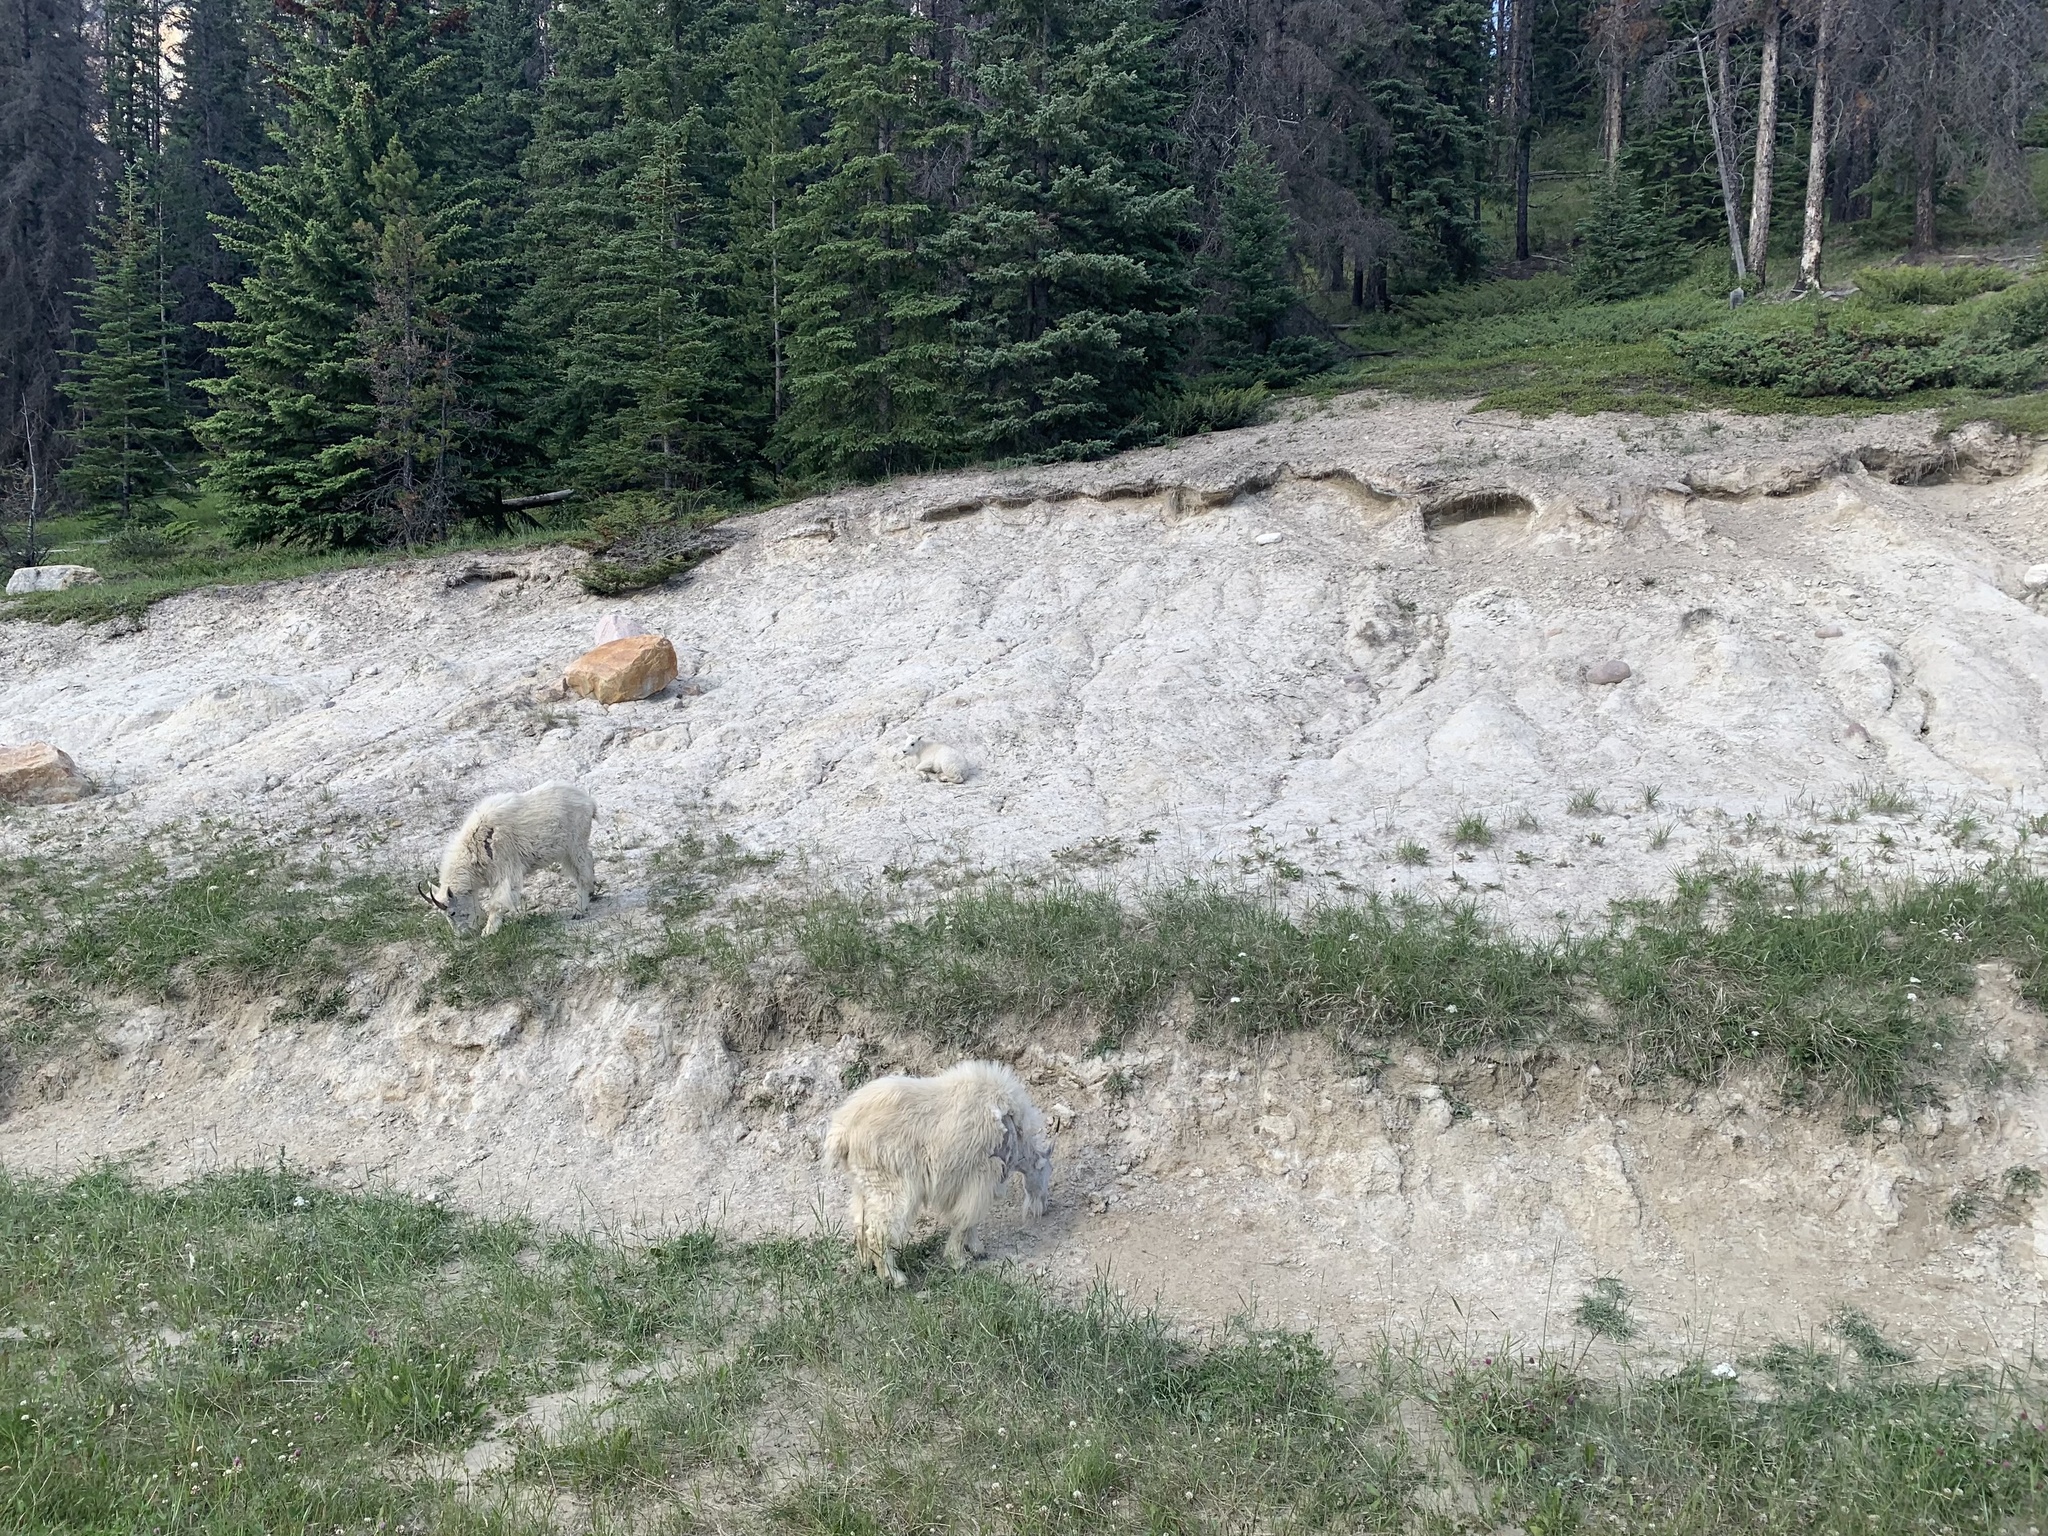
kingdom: Animalia
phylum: Chordata
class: Mammalia
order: Artiodactyla
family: Bovidae
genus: Oreamnos
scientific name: Oreamnos americanus
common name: Mountain goat
